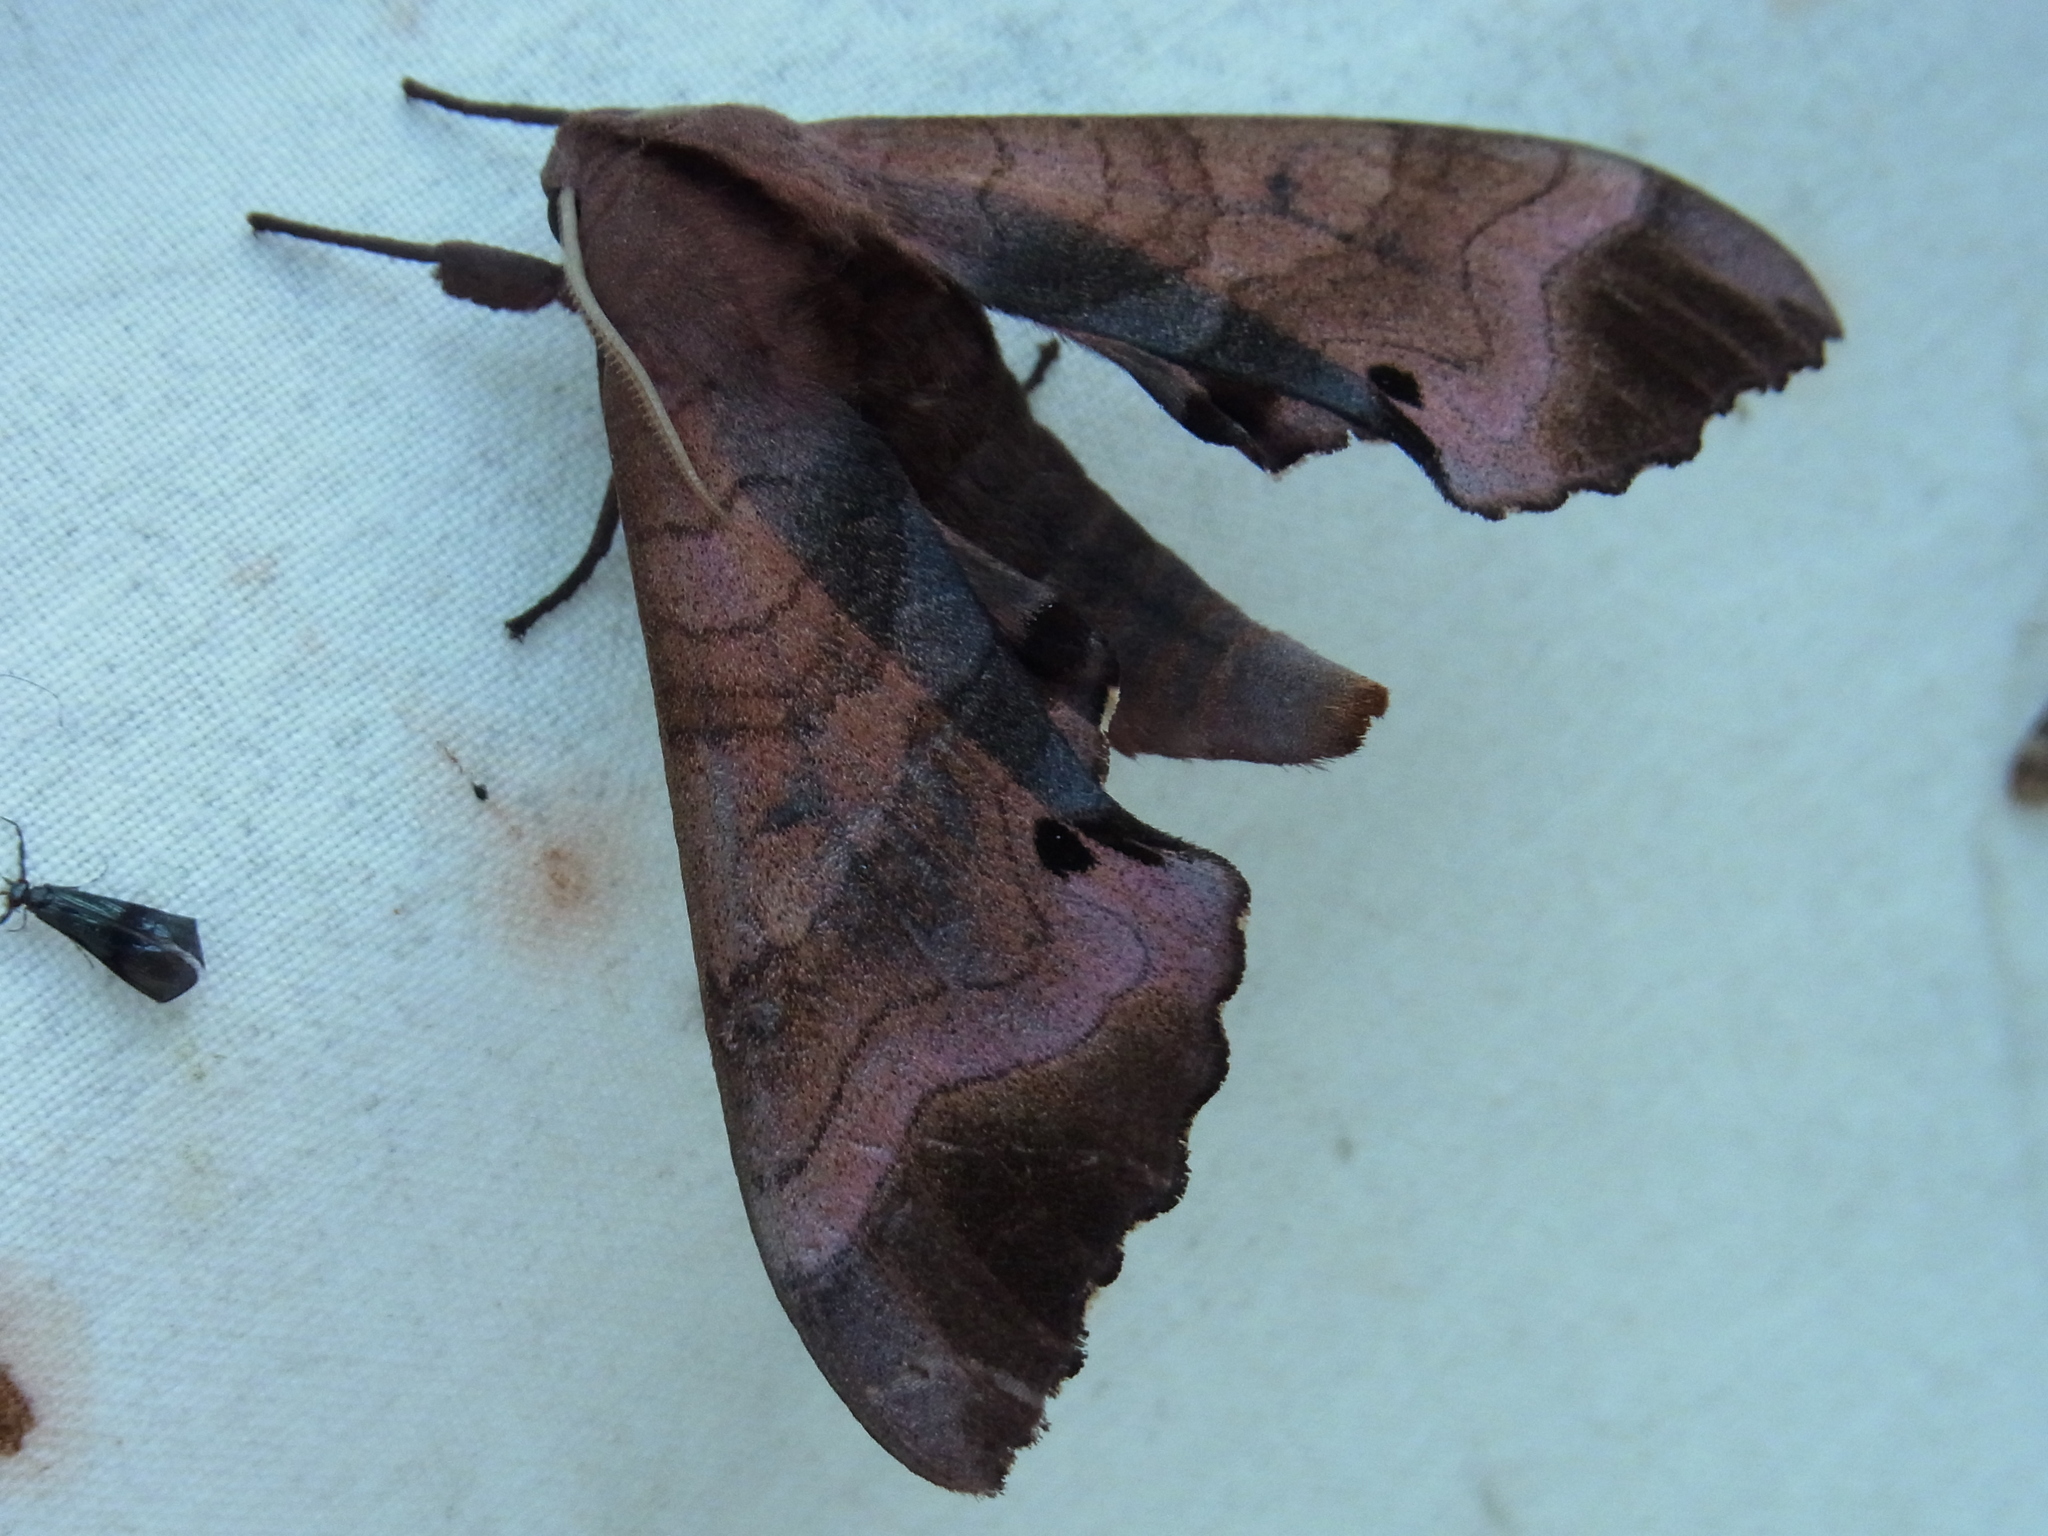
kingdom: Animalia
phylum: Arthropoda
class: Insecta
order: Lepidoptera
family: Sphingidae
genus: Marumba
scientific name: Marumba echephron
